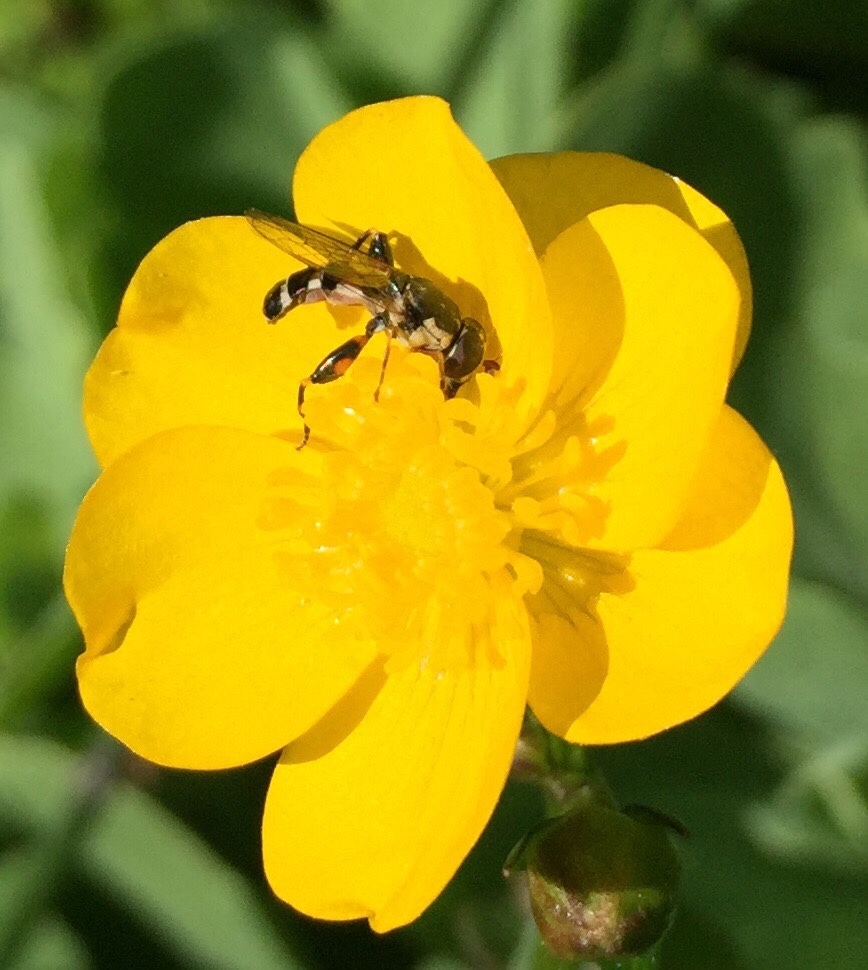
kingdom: Animalia
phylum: Arthropoda
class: Insecta
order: Diptera
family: Syrphidae
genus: Syritta
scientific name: Syritta pipiens
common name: Hover fly
